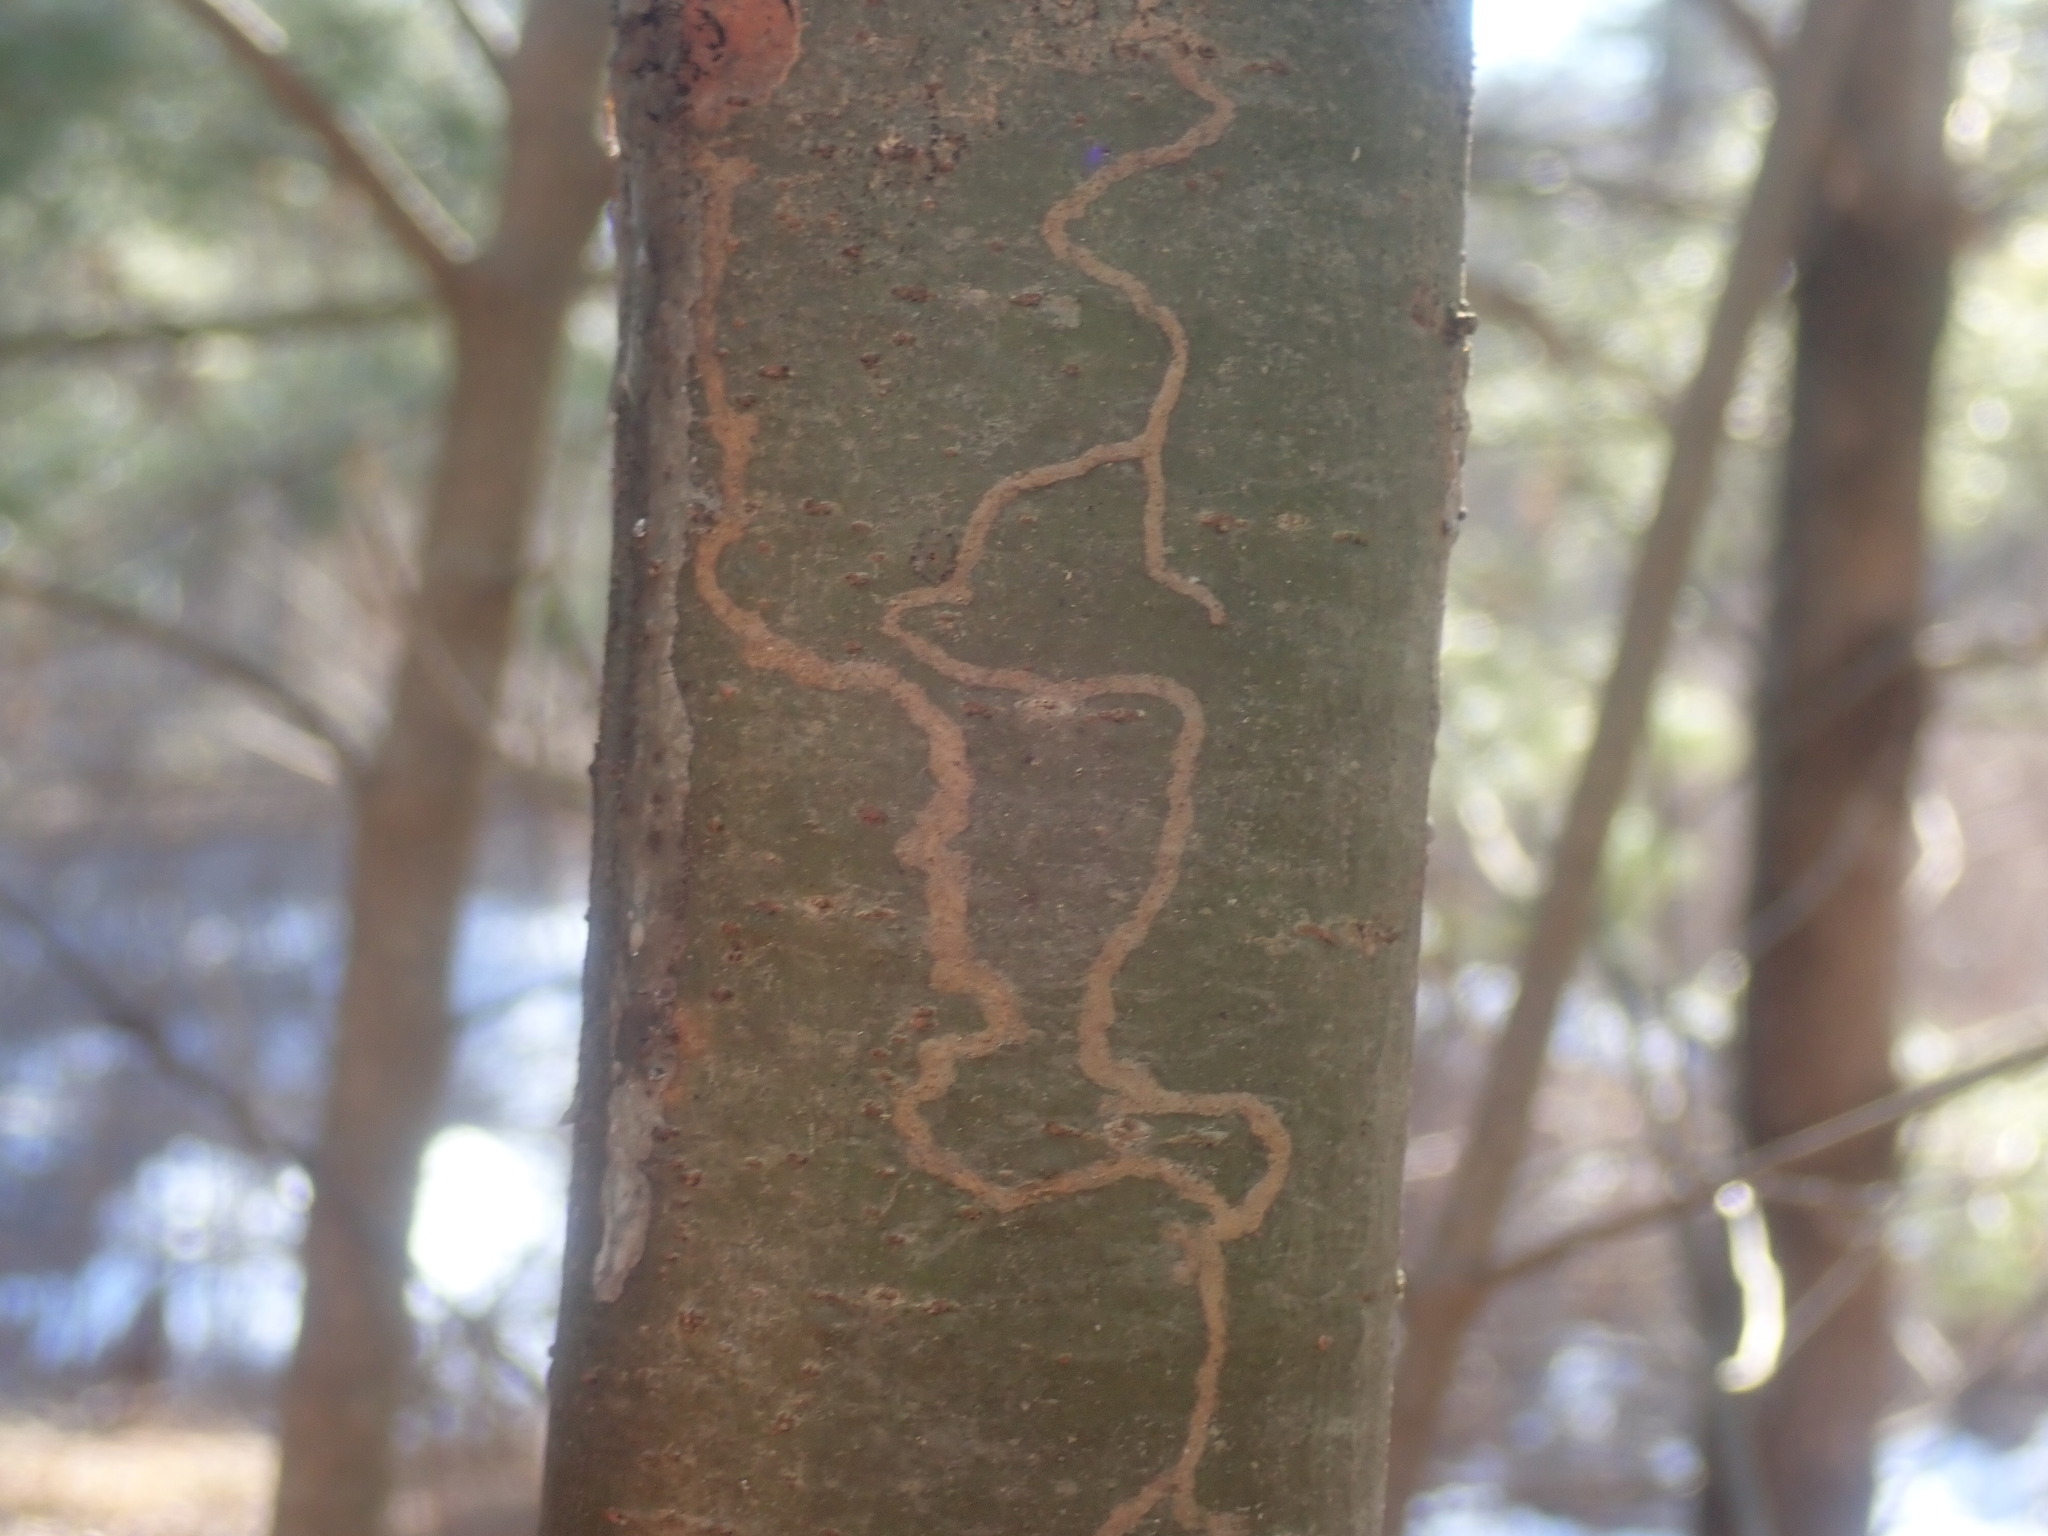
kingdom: Animalia
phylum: Arthropoda
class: Insecta
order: Lepidoptera
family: Gracillariidae
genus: Marmara
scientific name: Marmara fasciella
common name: White pine barkminer moth
